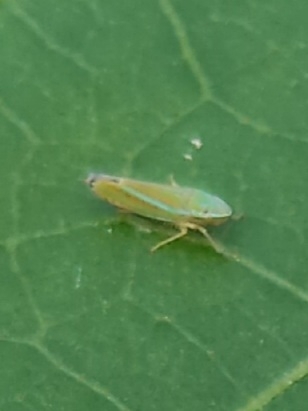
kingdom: Animalia
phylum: Arthropoda
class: Insecta
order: Hemiptera
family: Cicadellidae
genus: Graphocephala
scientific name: Graphocephala versuta
